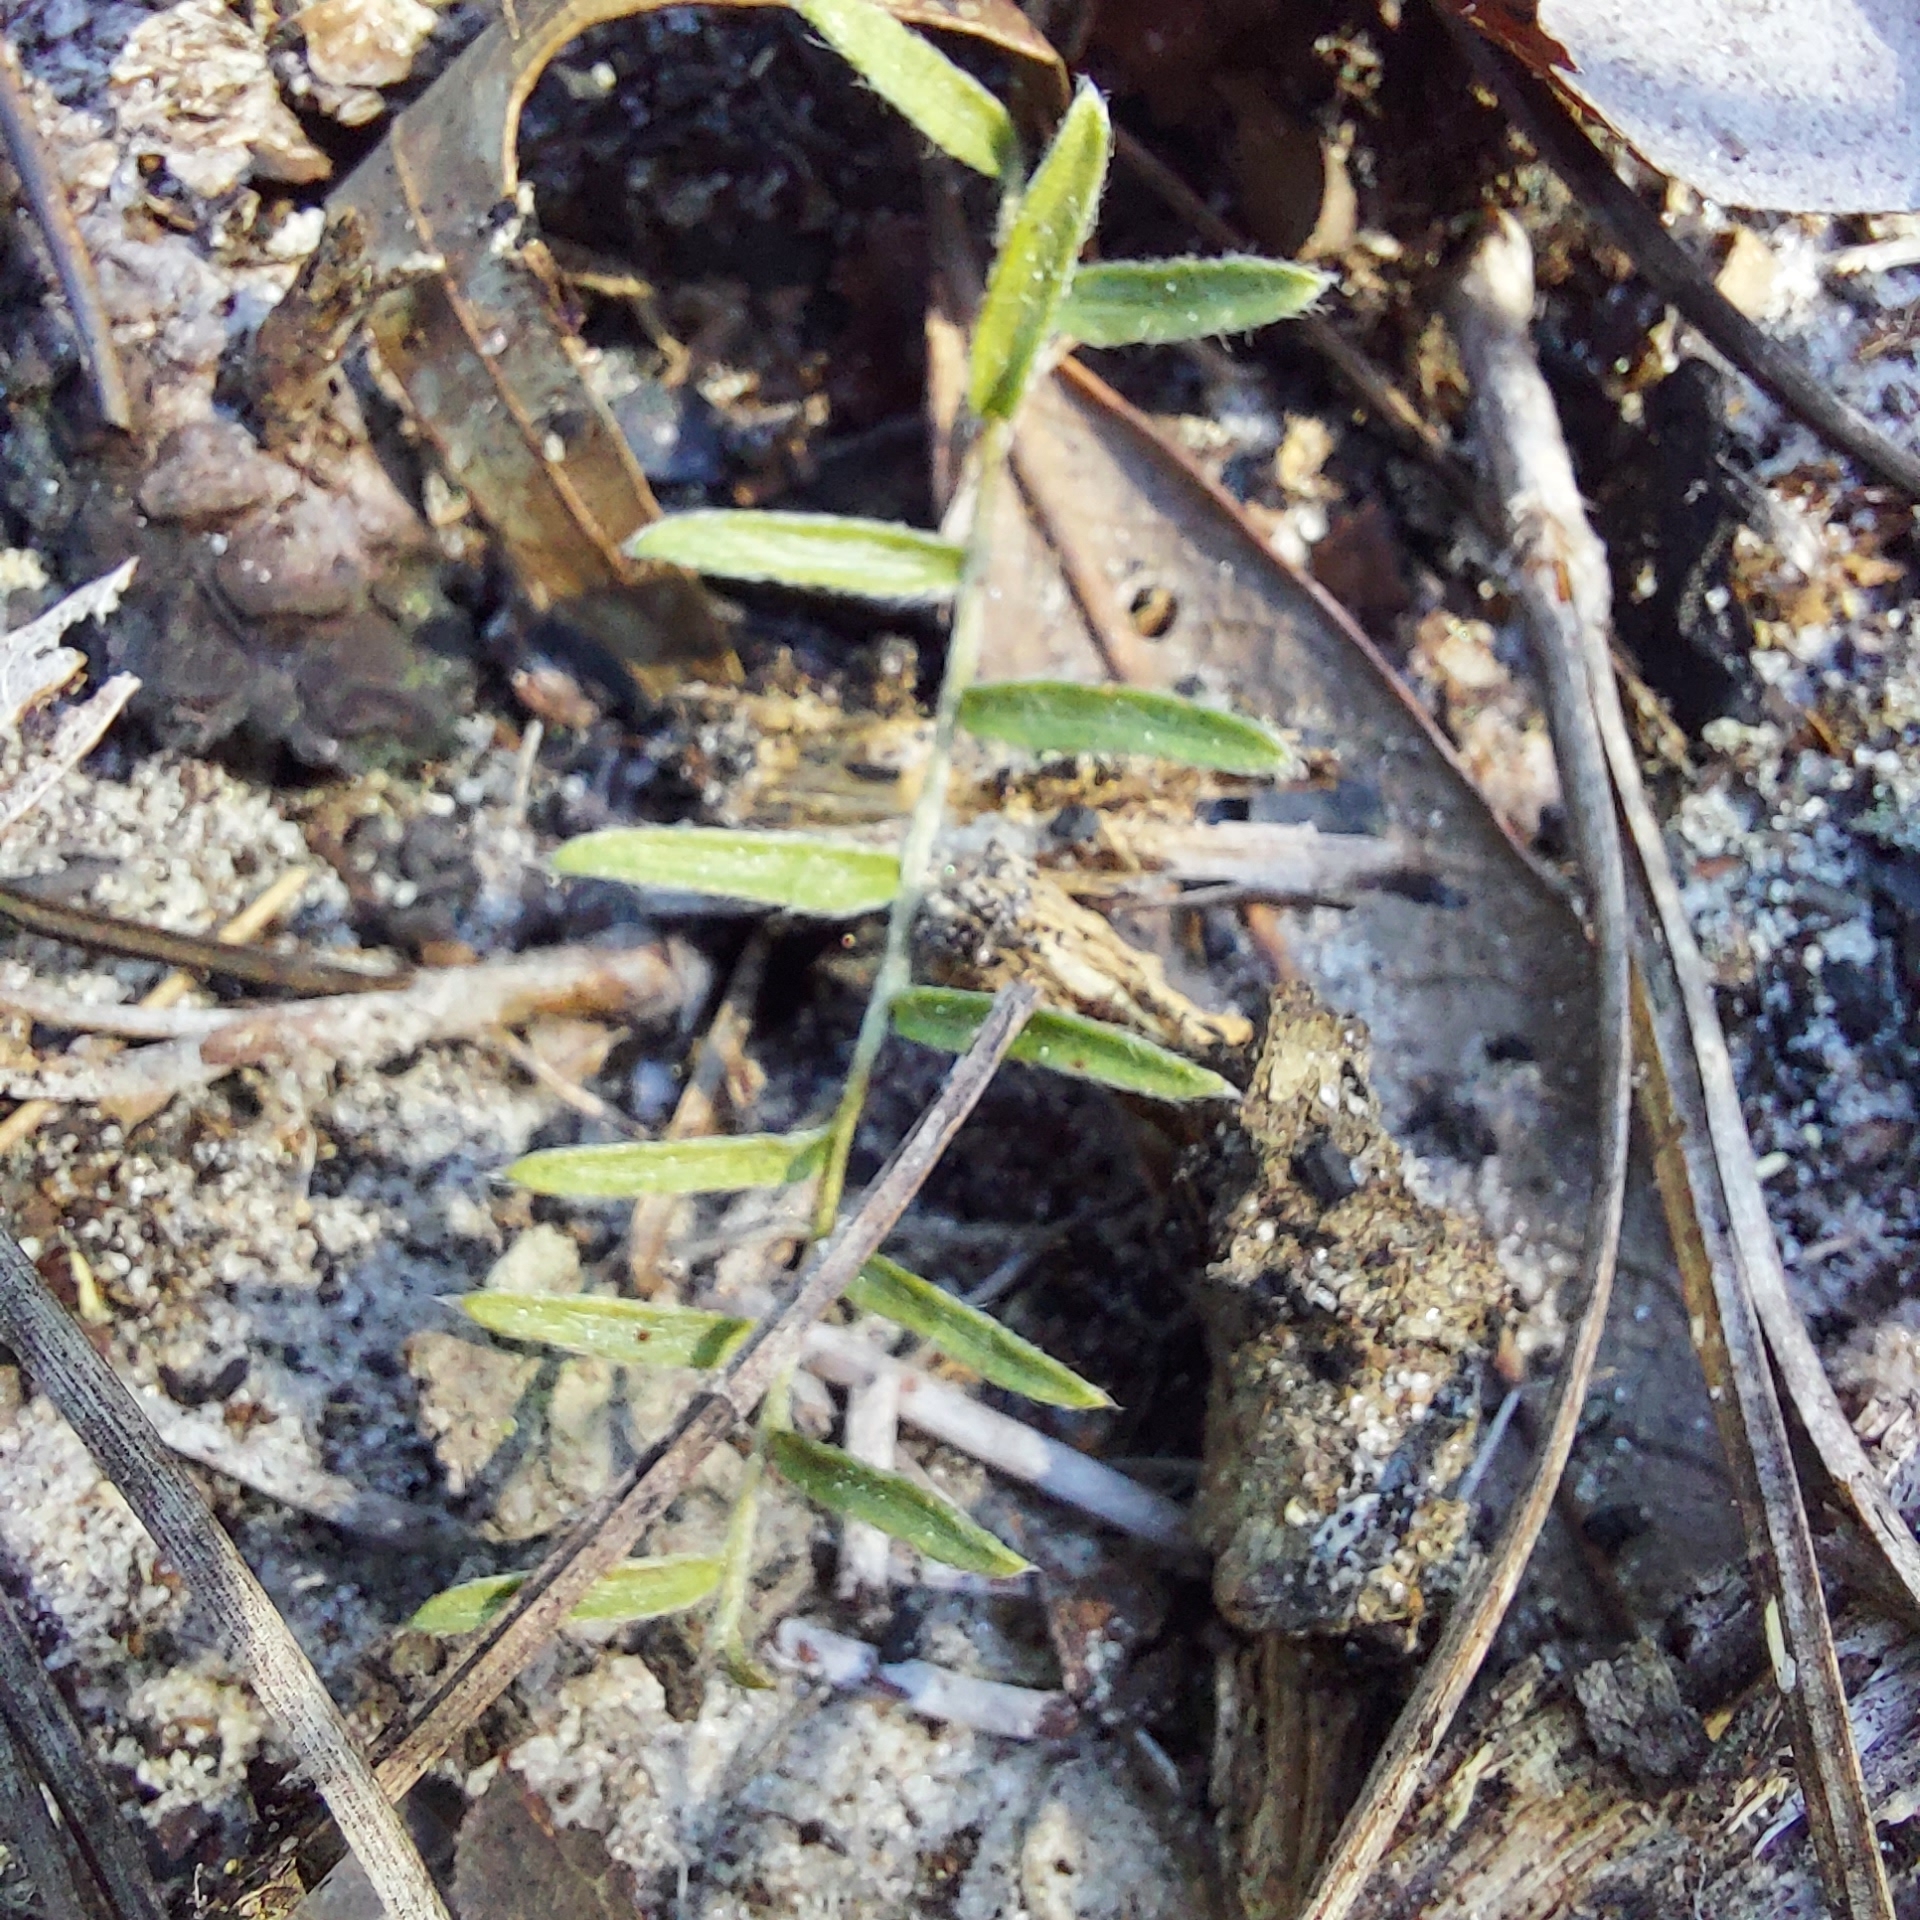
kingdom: Plantae
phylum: Tracheophyta
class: Magnoliopsida
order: Solanales
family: Convolvulaceae
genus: Stylisma
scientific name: Stylisma abdita
